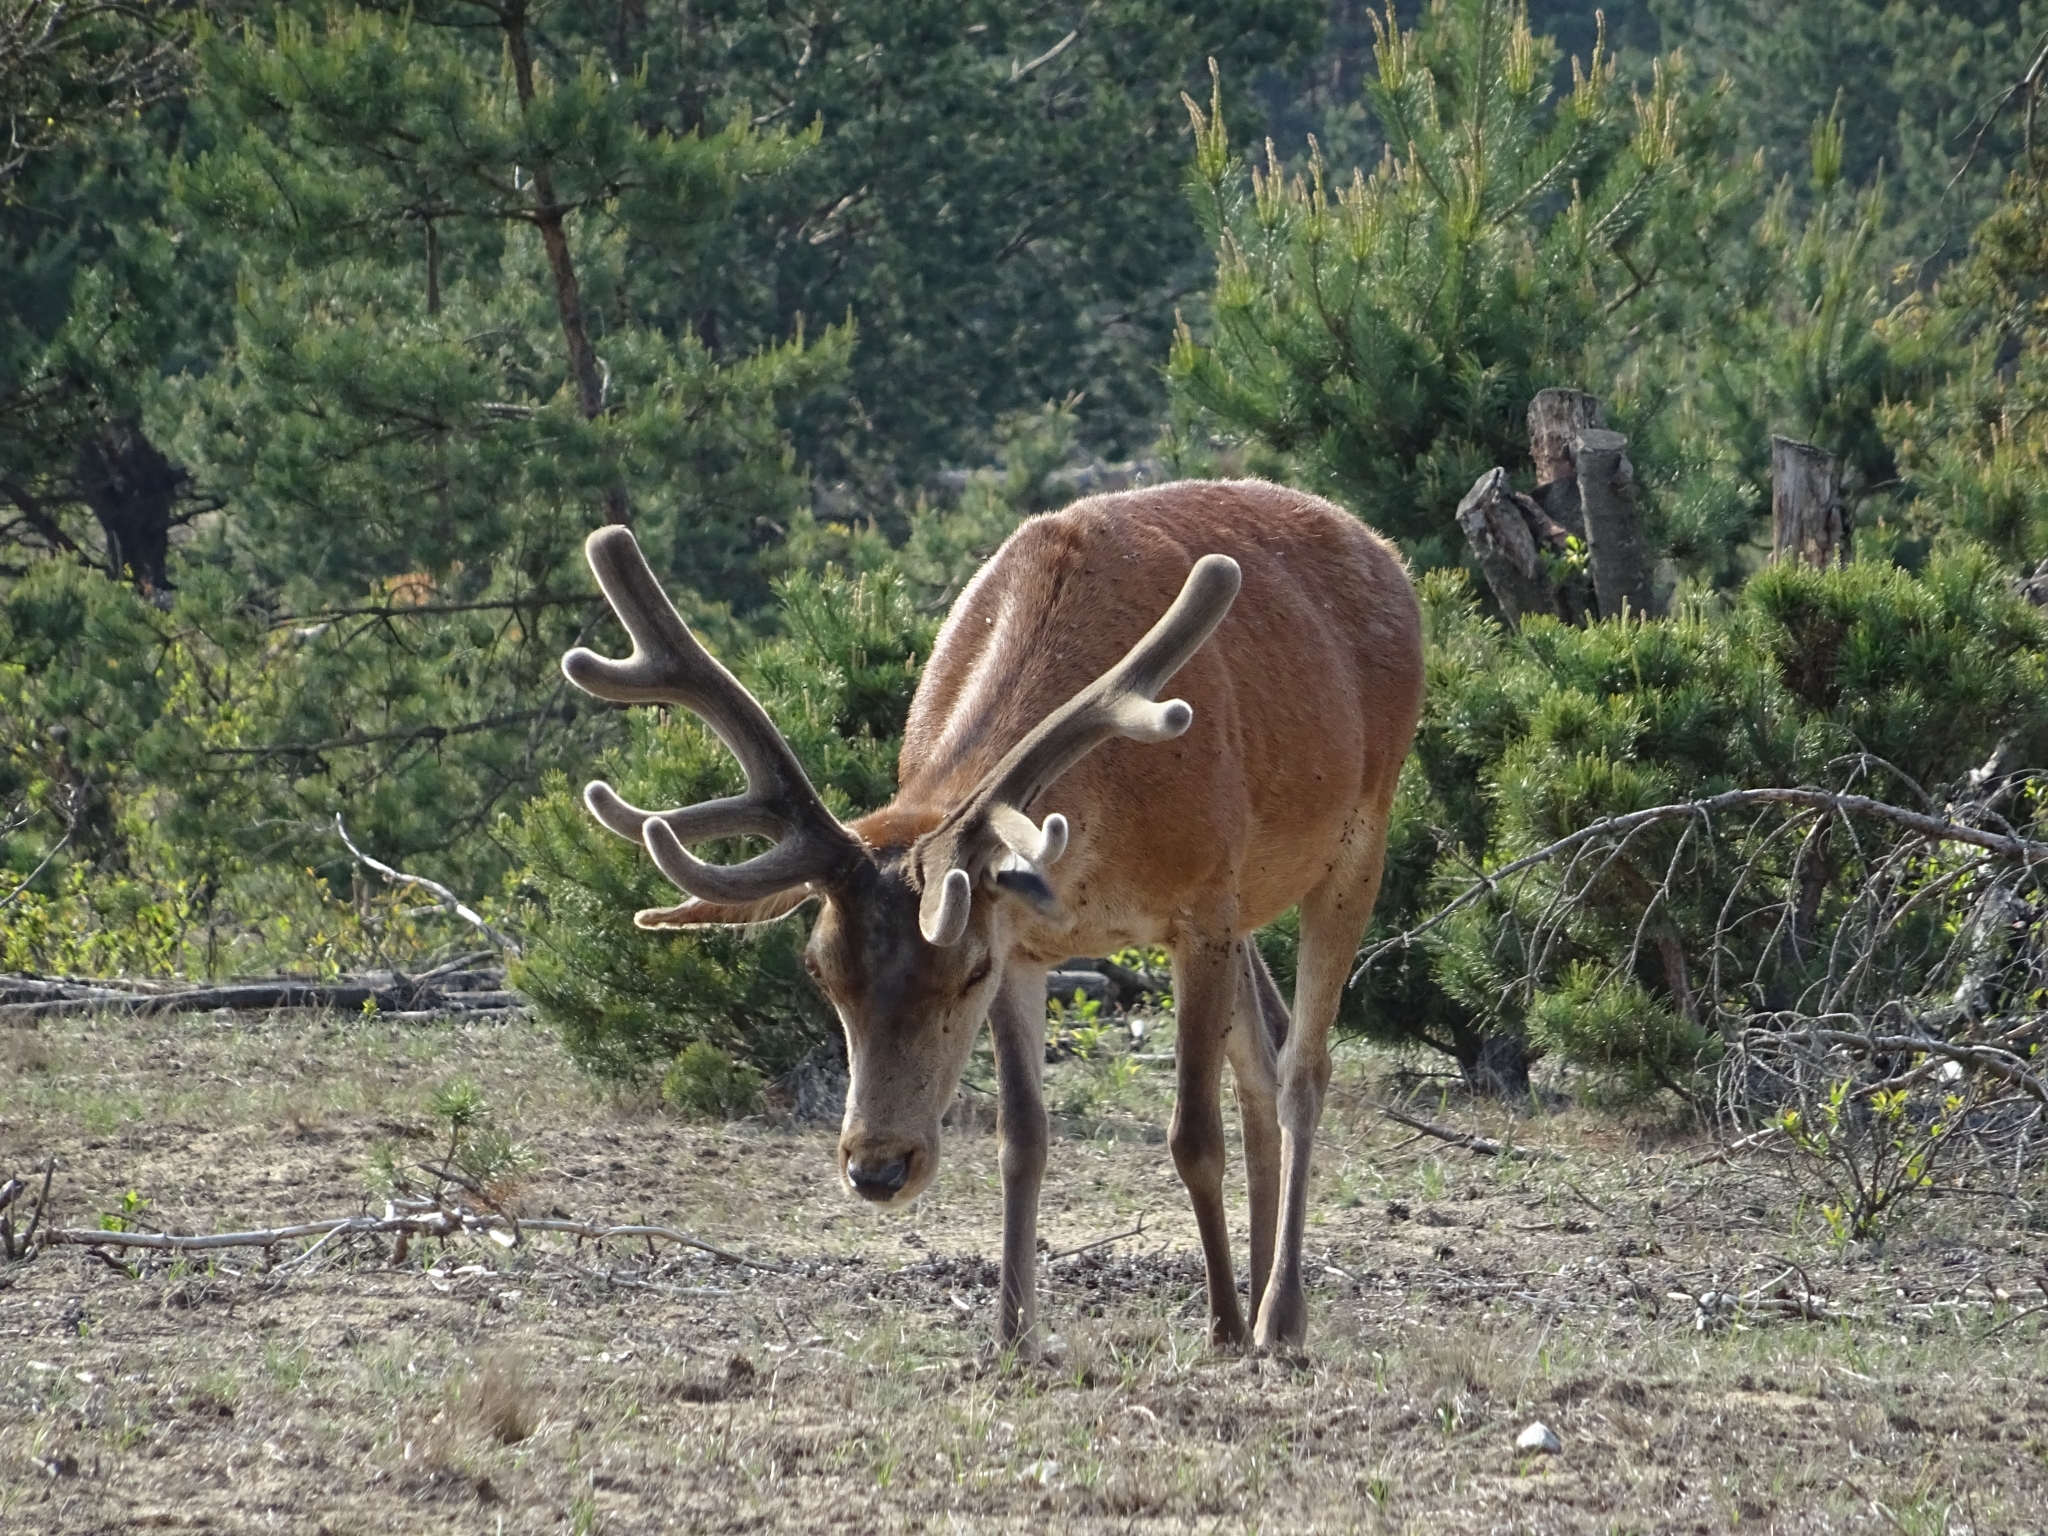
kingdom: Animalia
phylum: Chordata
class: Mammalia
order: Artiodactyla
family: Cervidae
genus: Cervus
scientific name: Cervus elaphus
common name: Red deer
